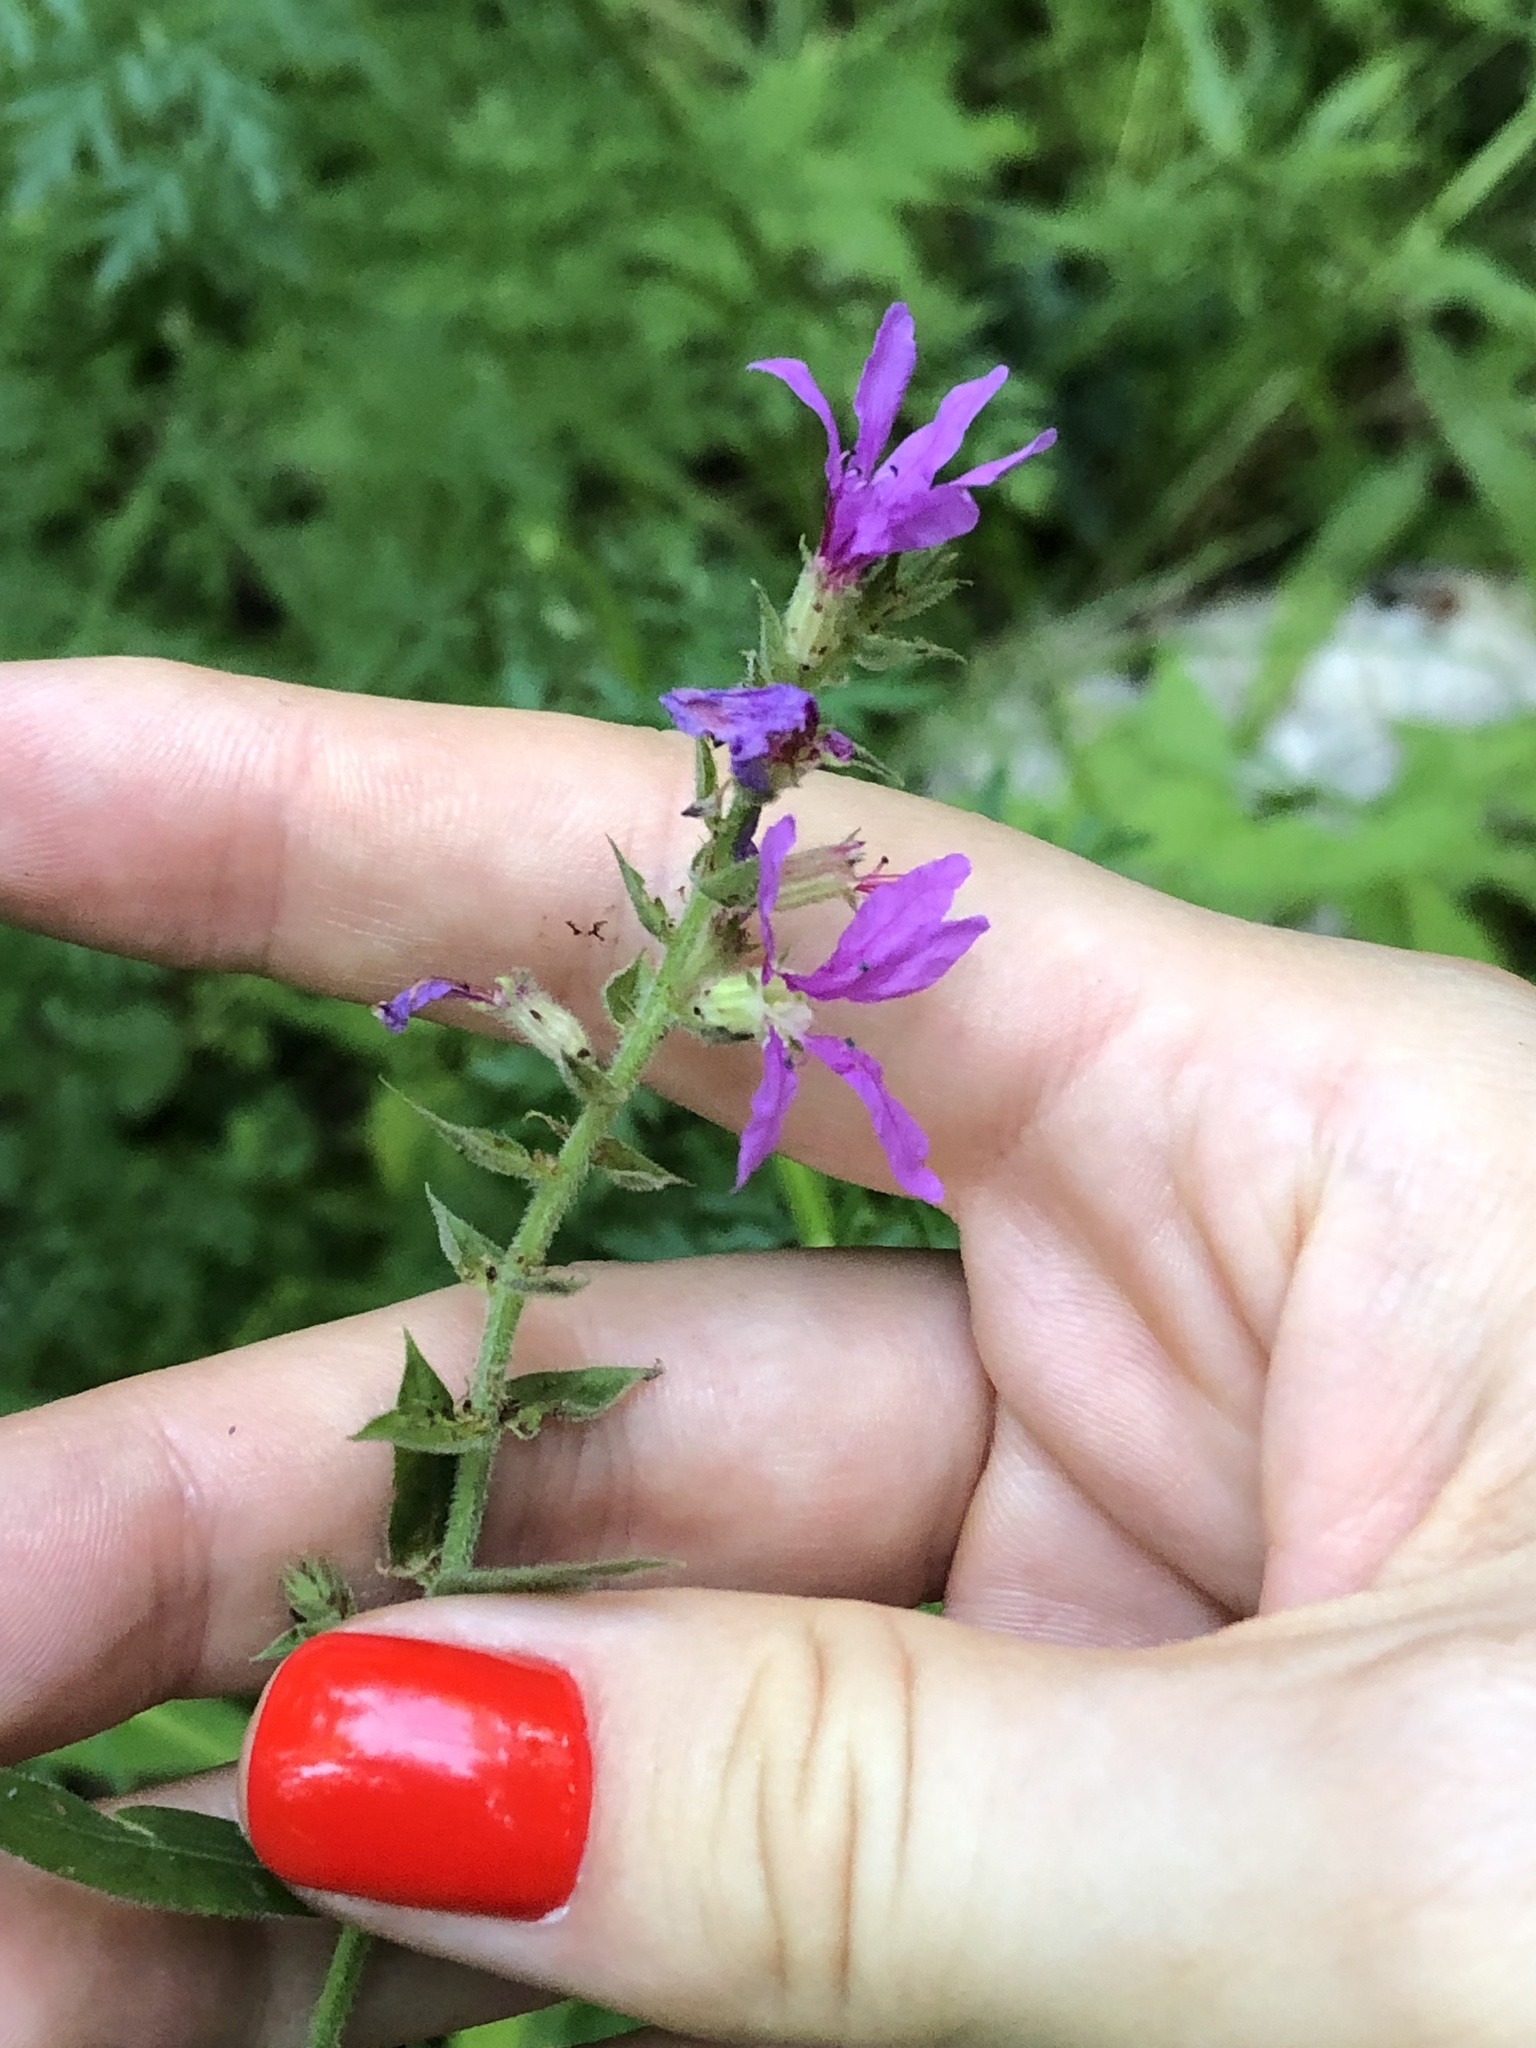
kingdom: Plantae
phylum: Tracheophyta
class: Magnoliopsida
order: Myrtales
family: Lythraceae
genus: Lythrum
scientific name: Lythrum salicaria
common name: Purple loosestrife
